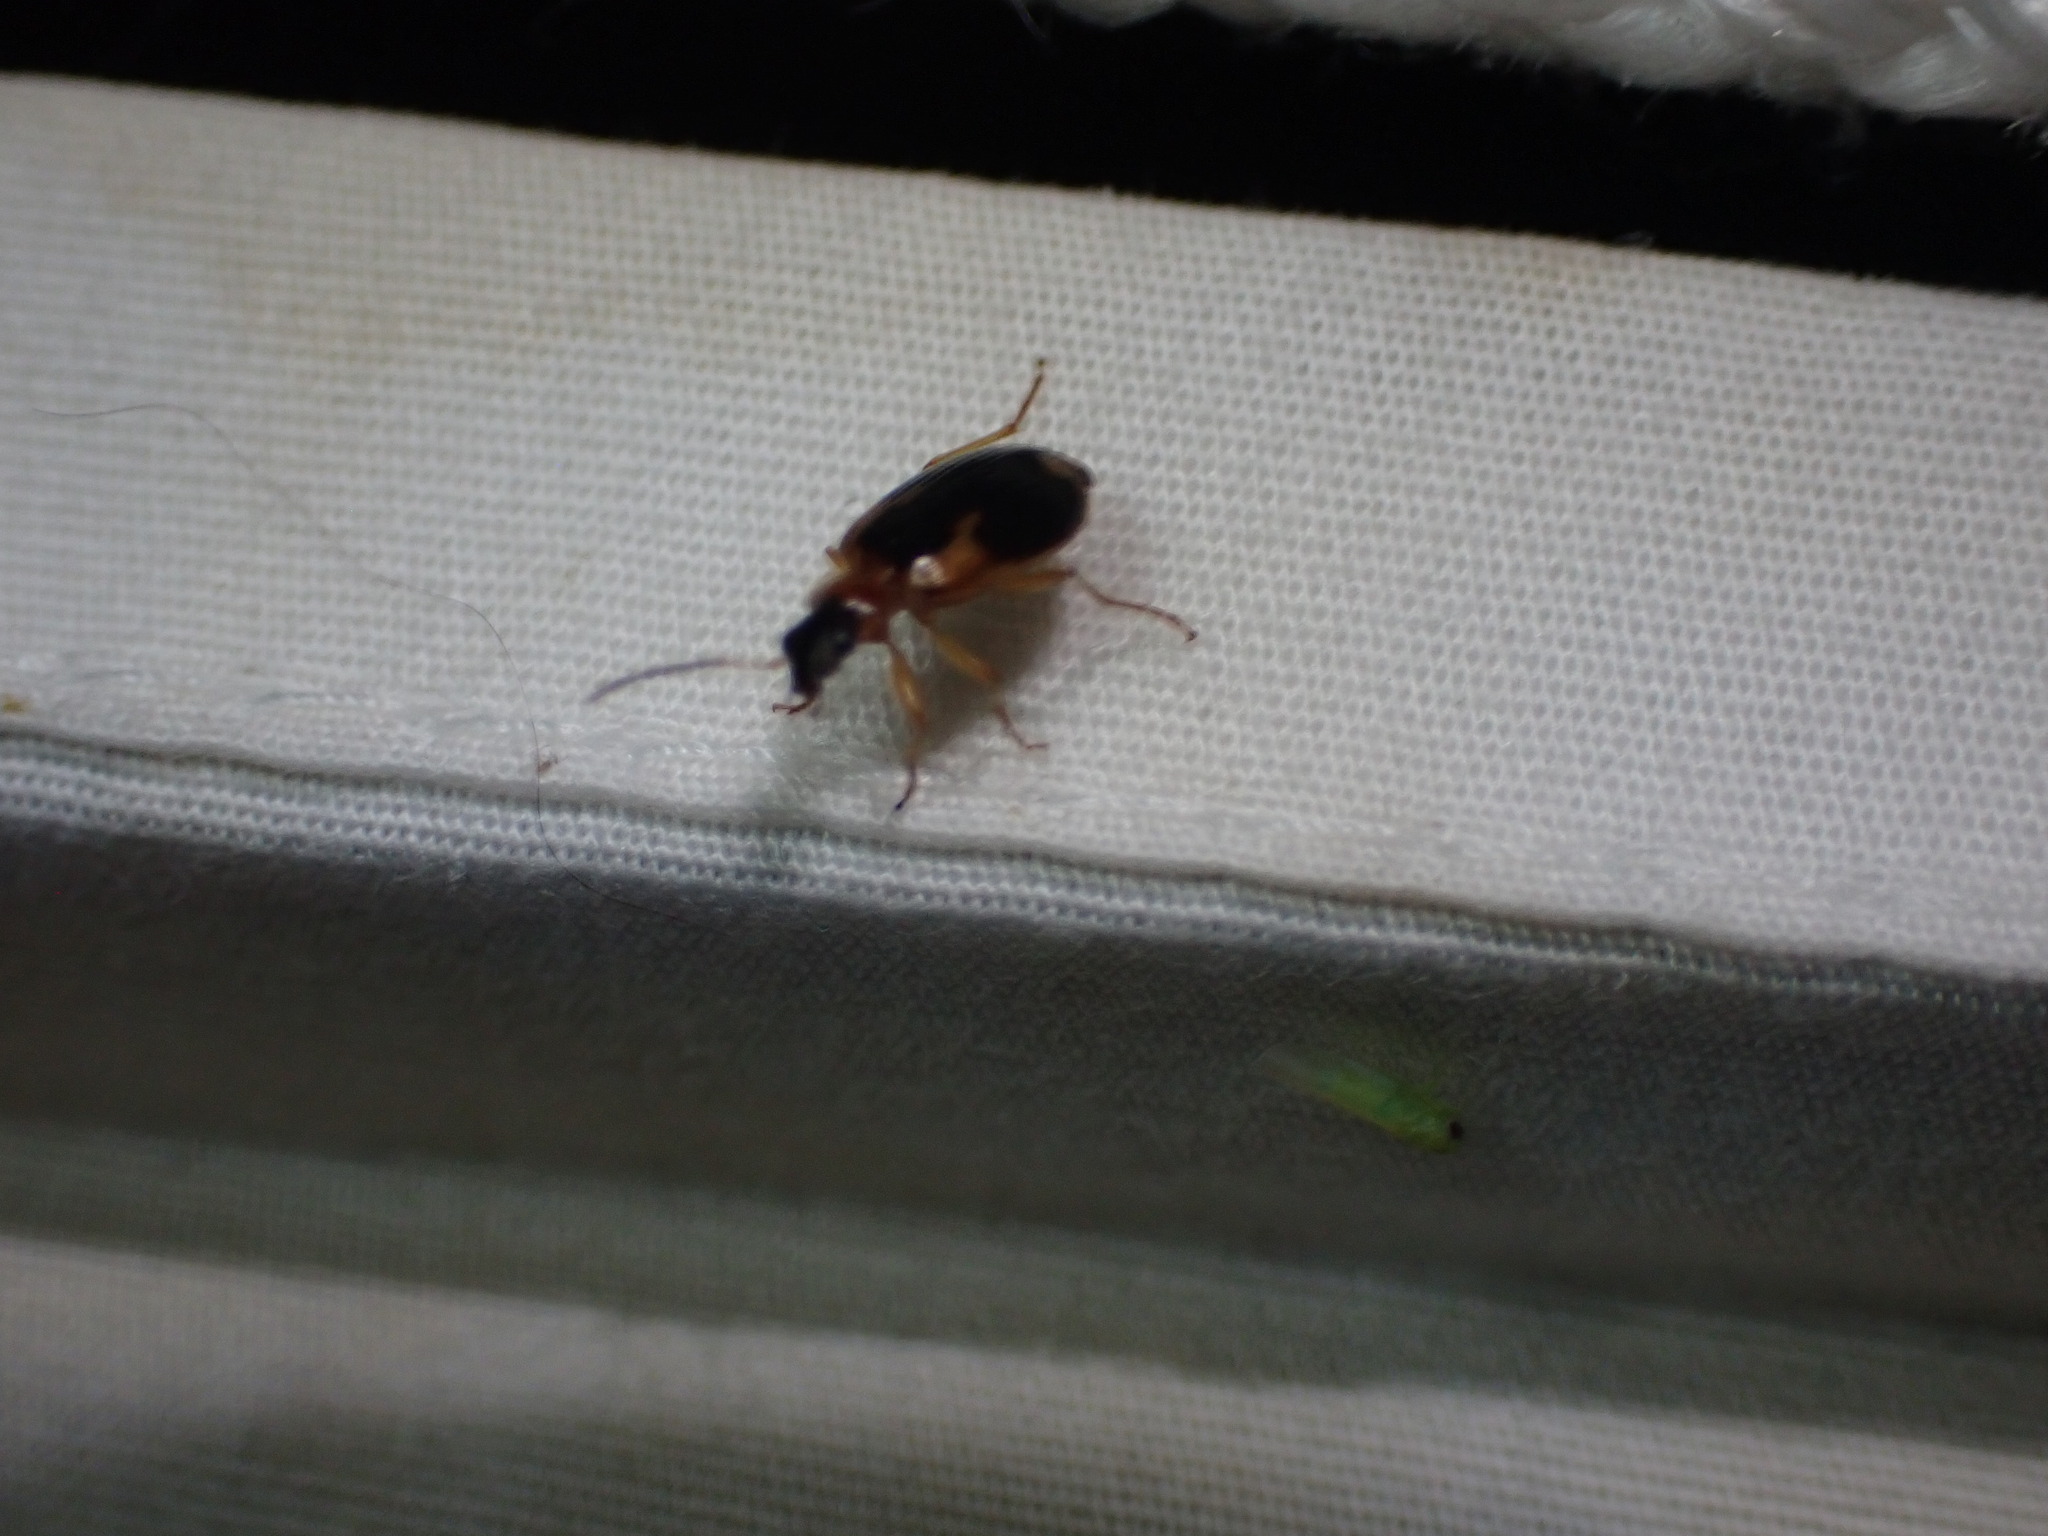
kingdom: Animalia
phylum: Arthropoda
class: Insecta
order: Coleoptera
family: Carabidae
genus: Lebia
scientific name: Lebia analis
